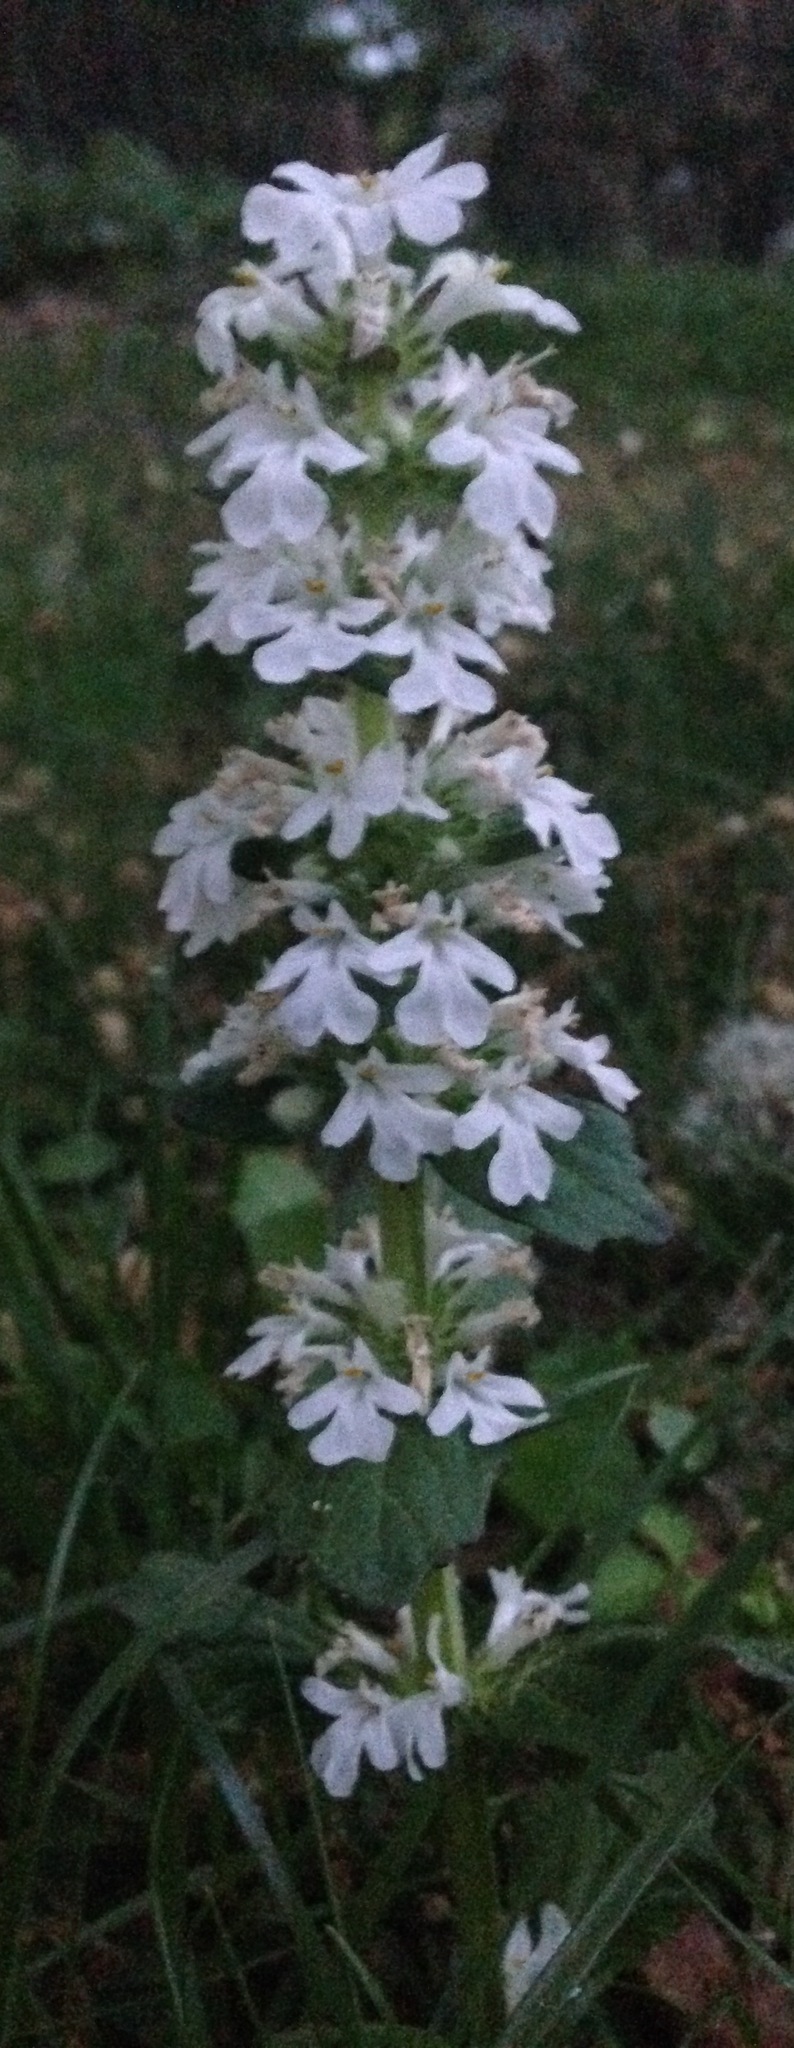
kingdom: Plantae
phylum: Tracheophyta
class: Magnoliopsida
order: Lamiales
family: Lamiaceae
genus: Ajuga
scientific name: Ajuga reptans
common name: Bugle
